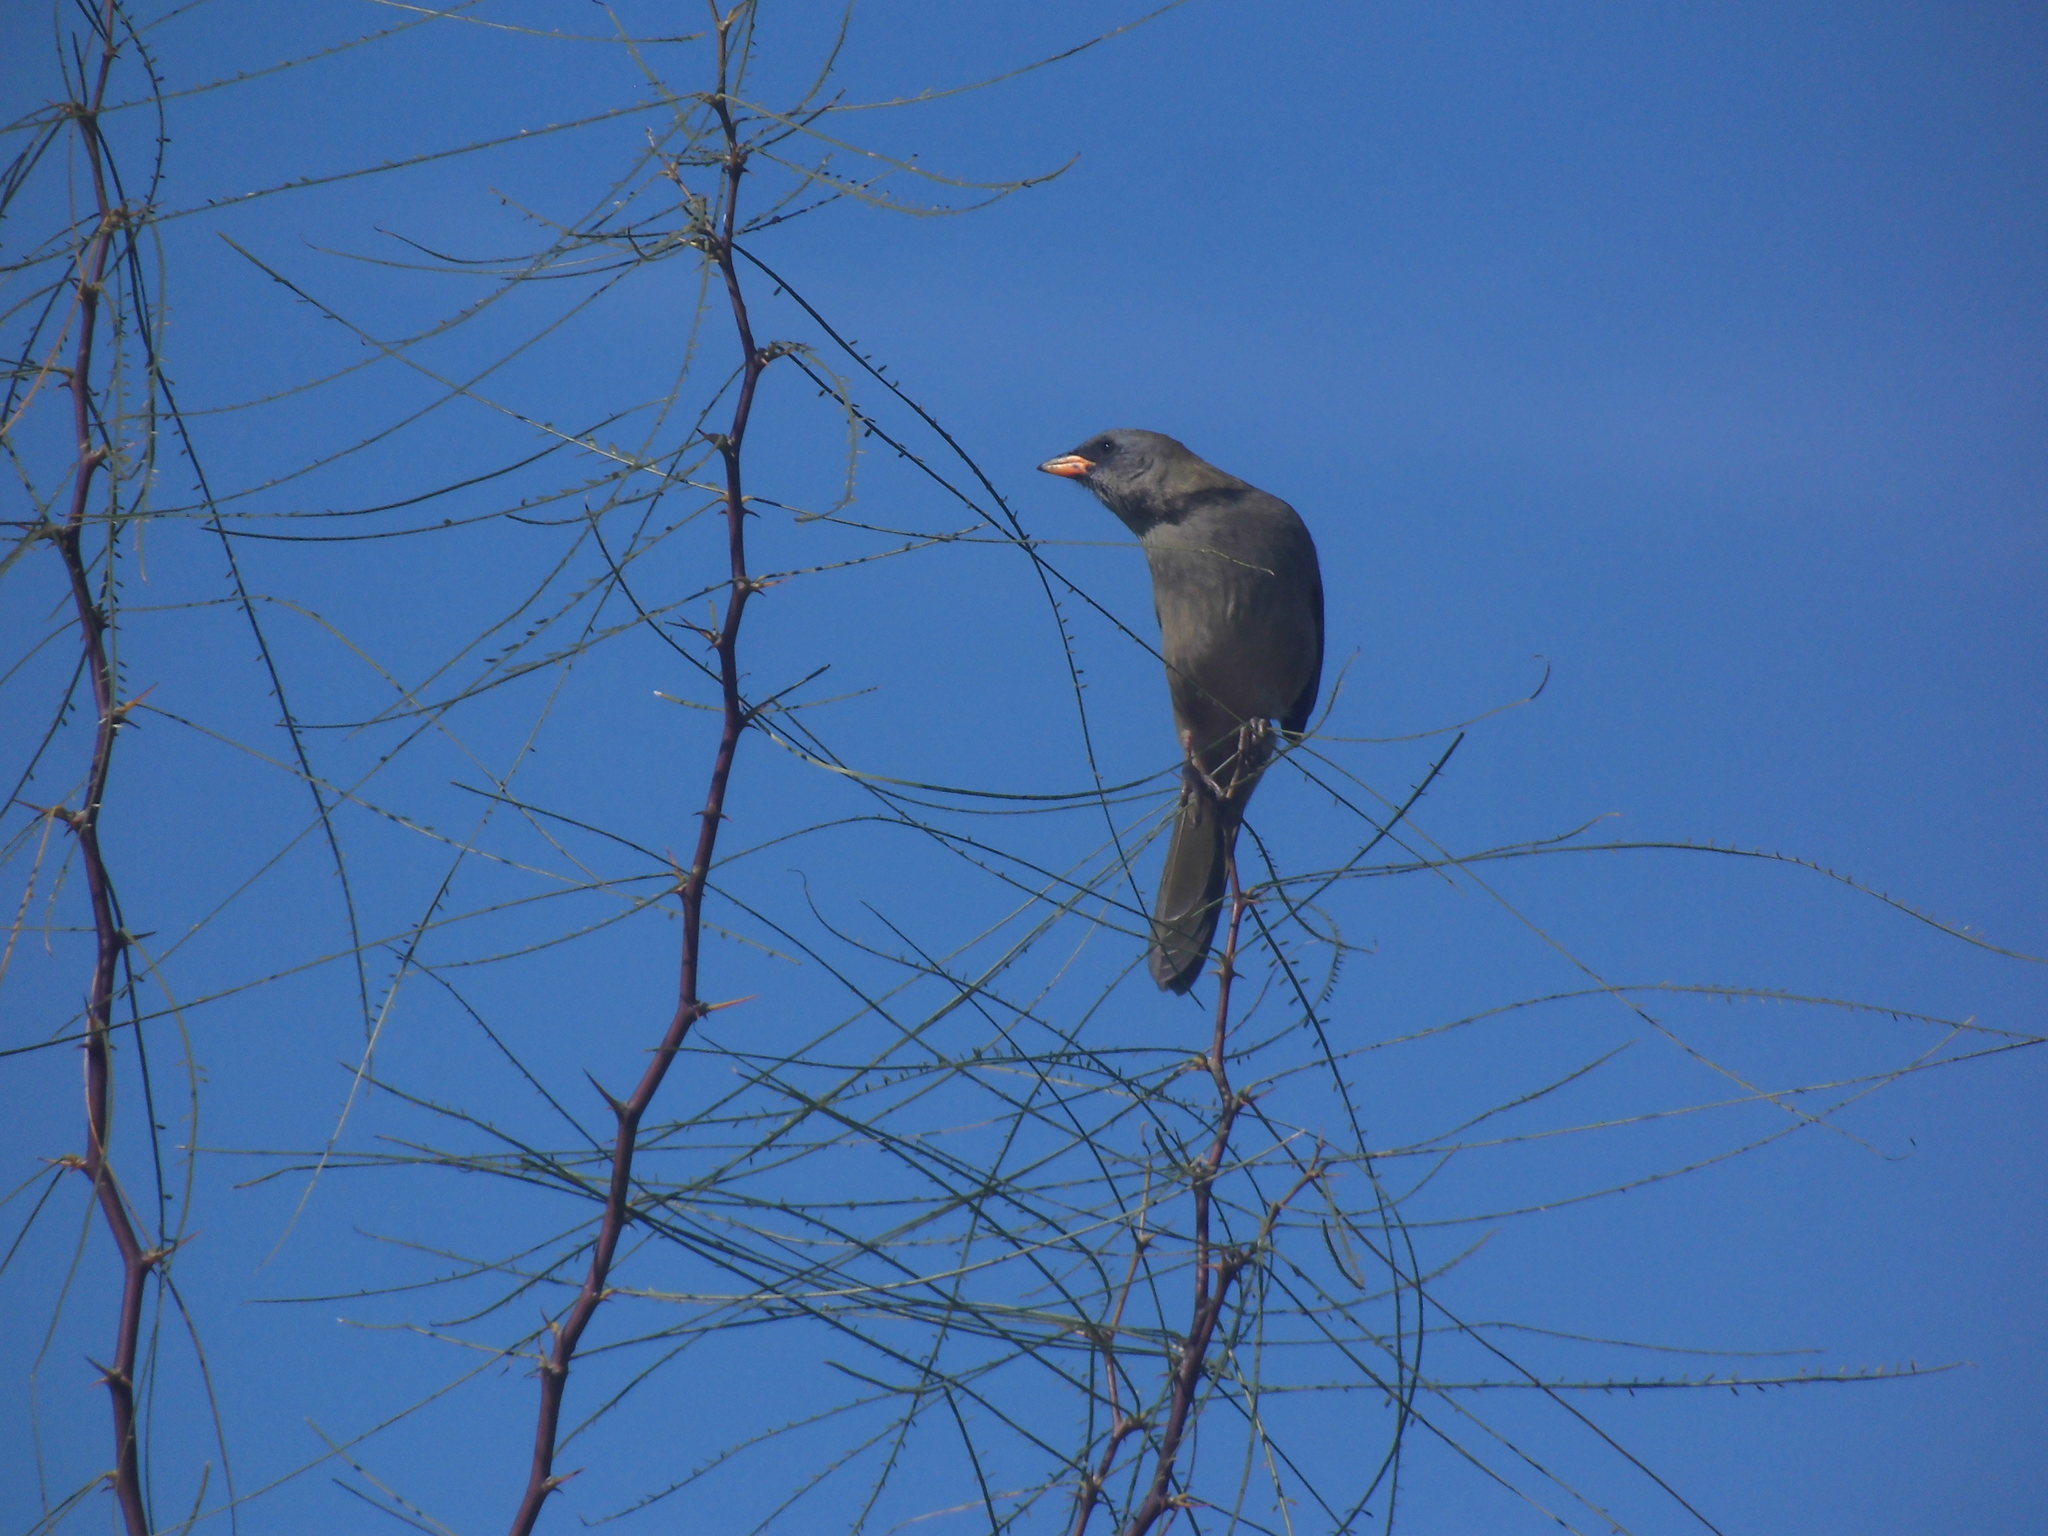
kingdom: Animalia
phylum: Chordata
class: Aves
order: Passeriformes
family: Thraupidae
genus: Embernagra
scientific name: Embernagra platensis
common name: Pampa finch
